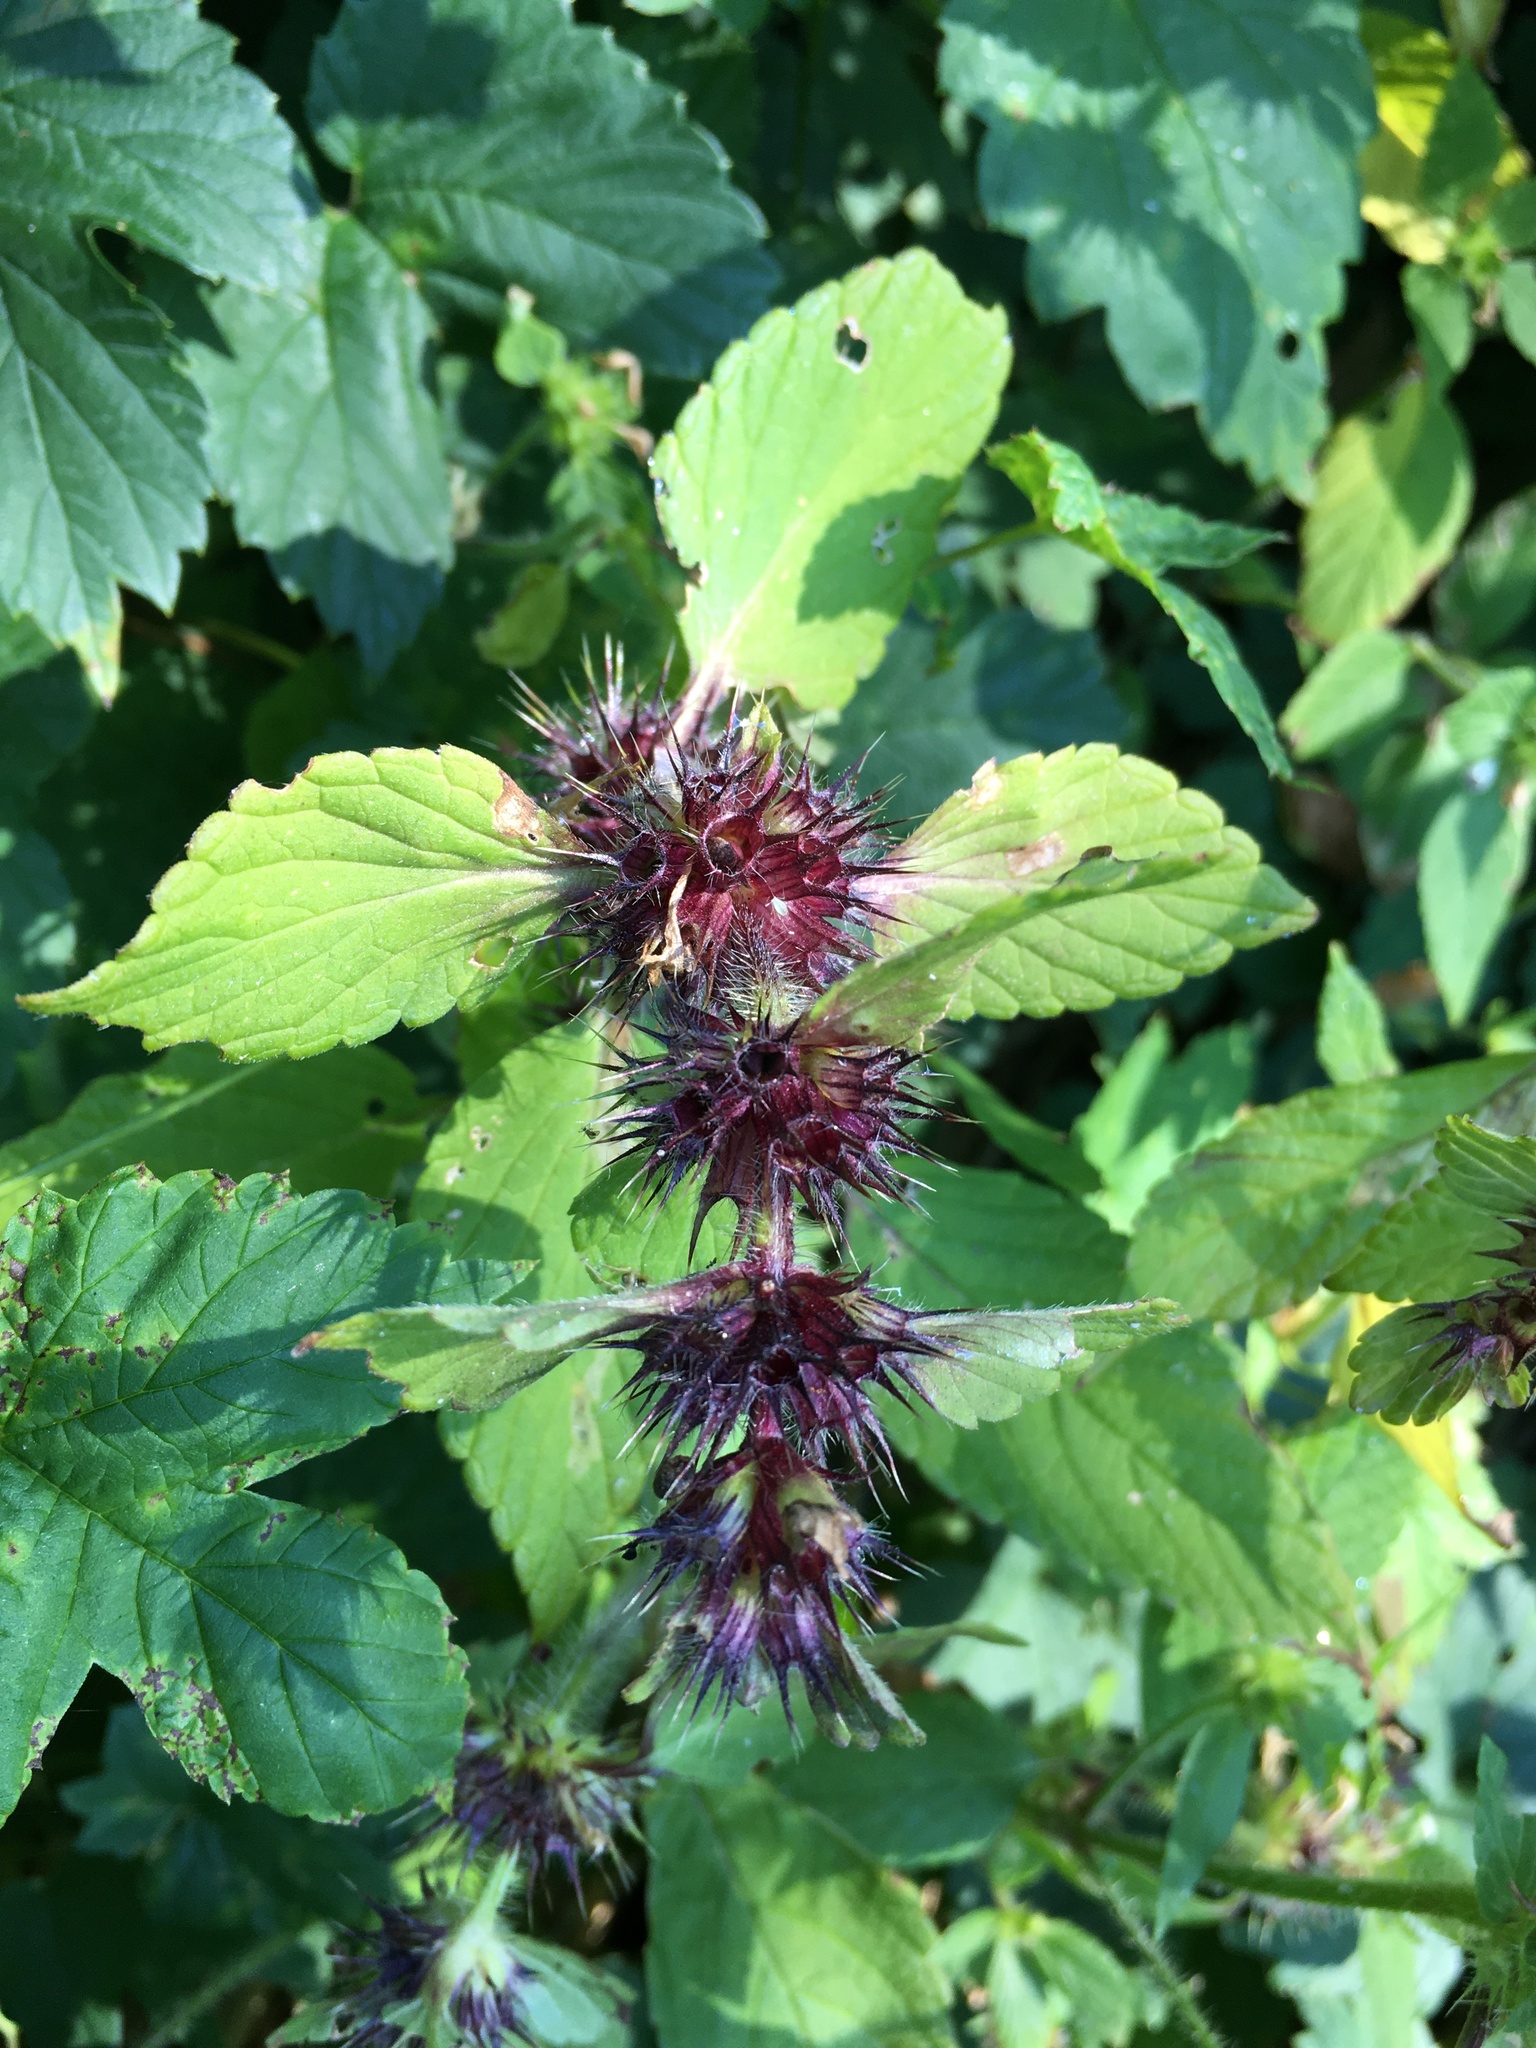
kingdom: Plantae
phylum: Tracheophyta
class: Magnoliopsida
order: Lamiales
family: Lamiaceae
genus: Galeopsis
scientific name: Galeopsis
